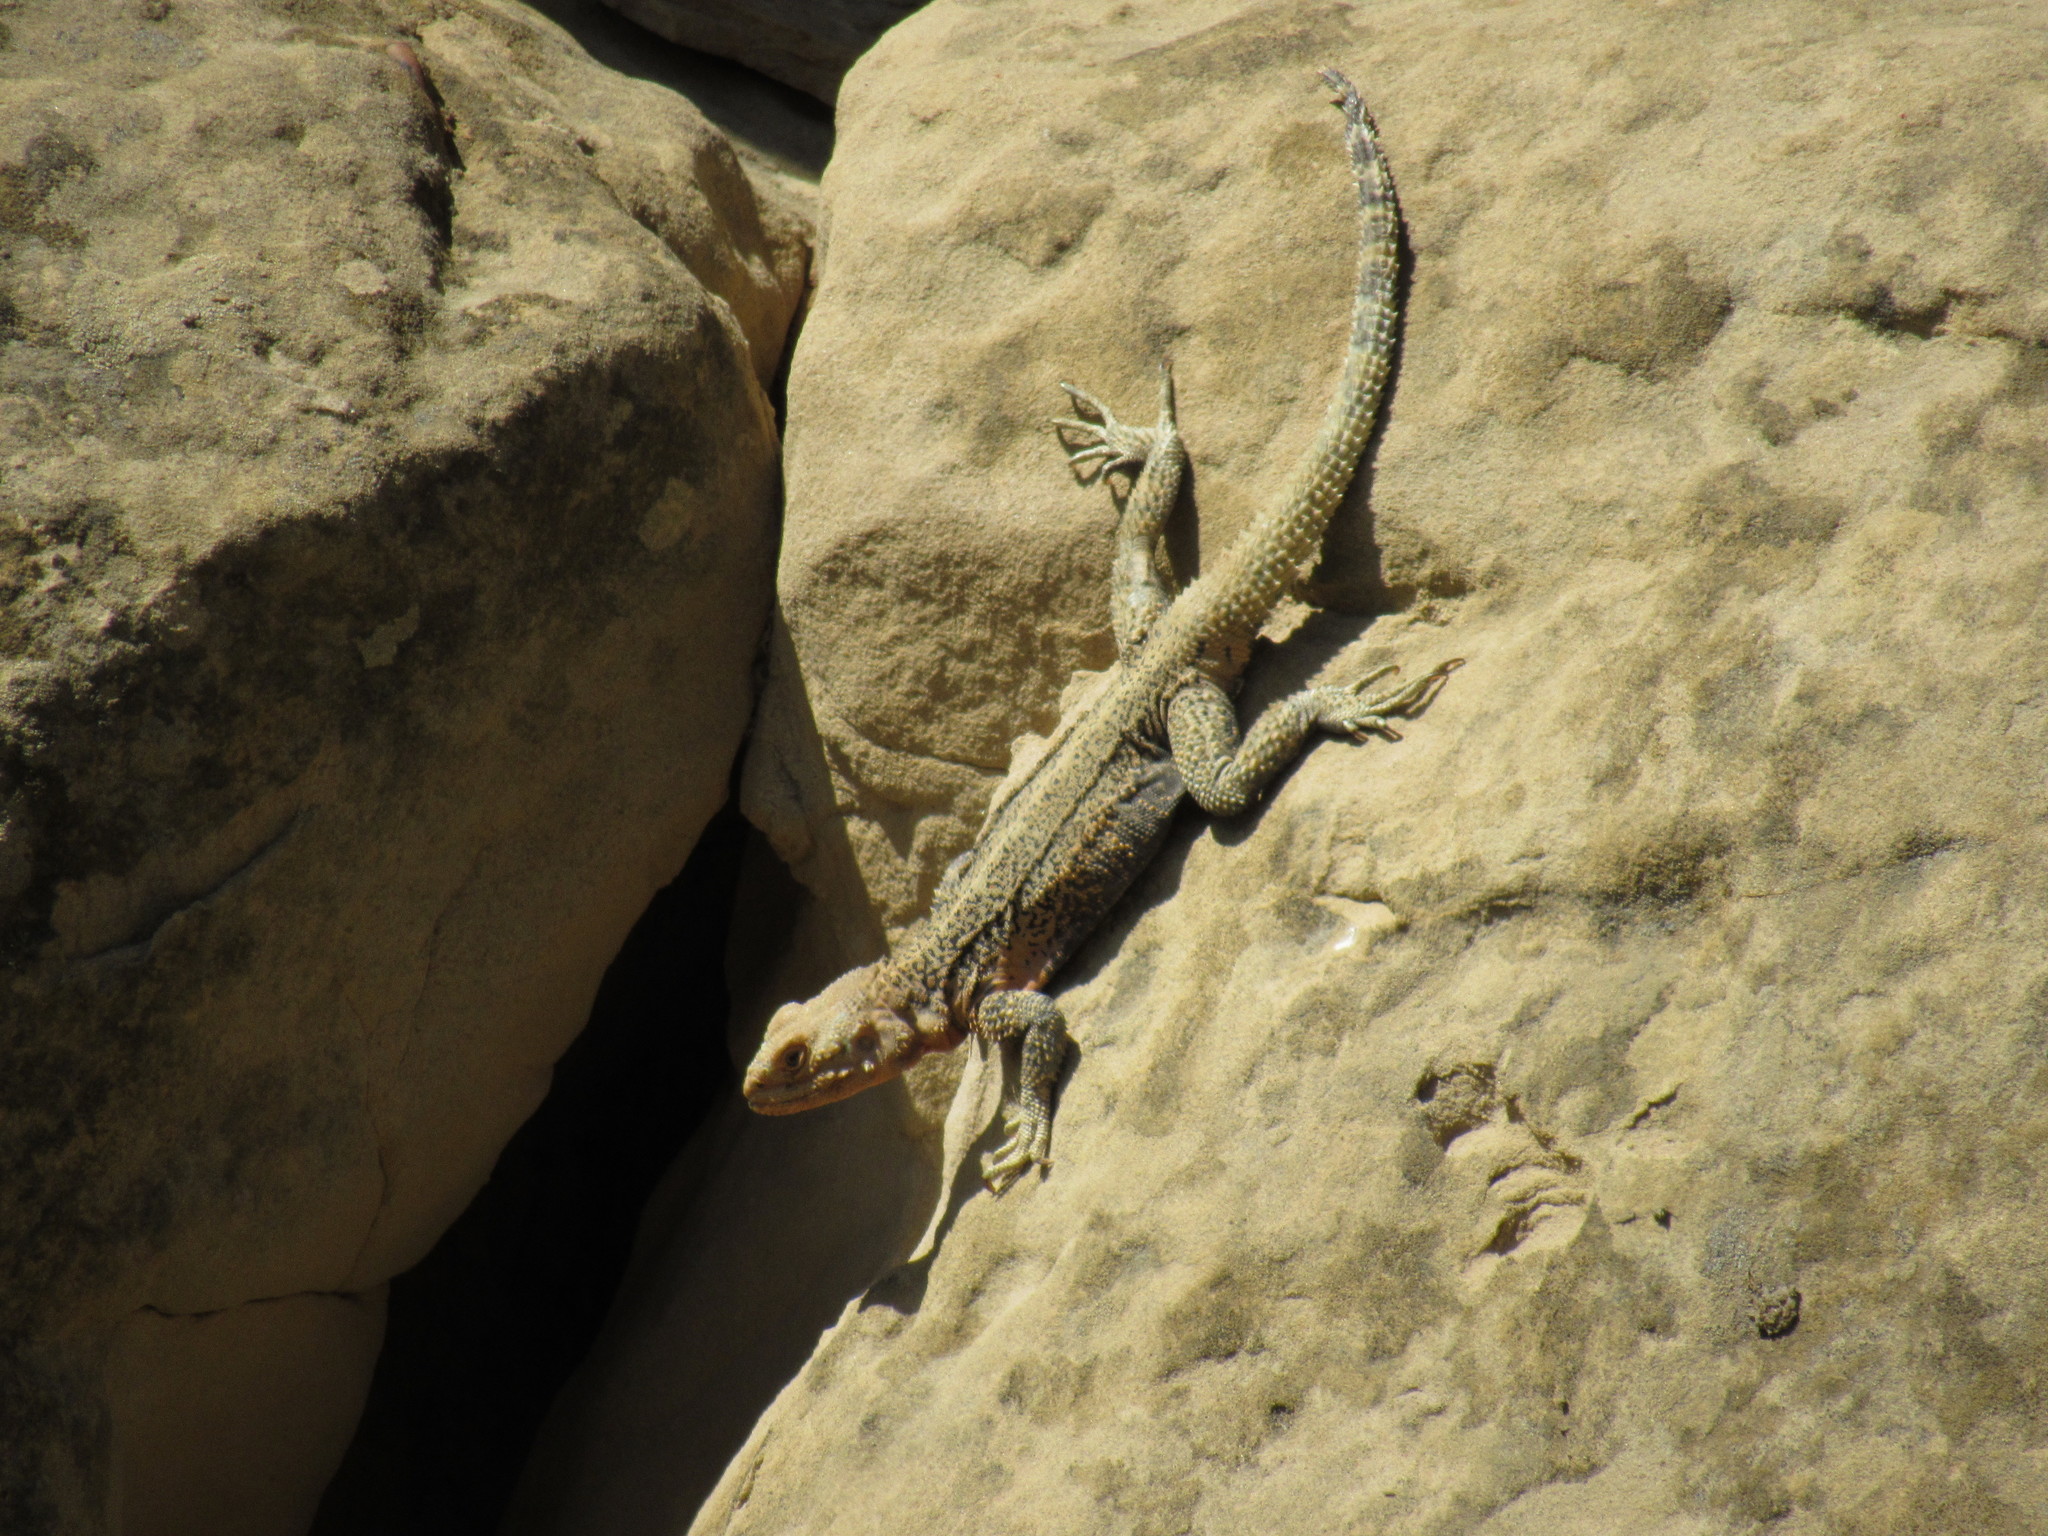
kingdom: Animalia
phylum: Chordata
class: Squamata
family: Agamidae
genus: Paralaudakia
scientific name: Paralaudakia caucasia
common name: Caucasian agama
